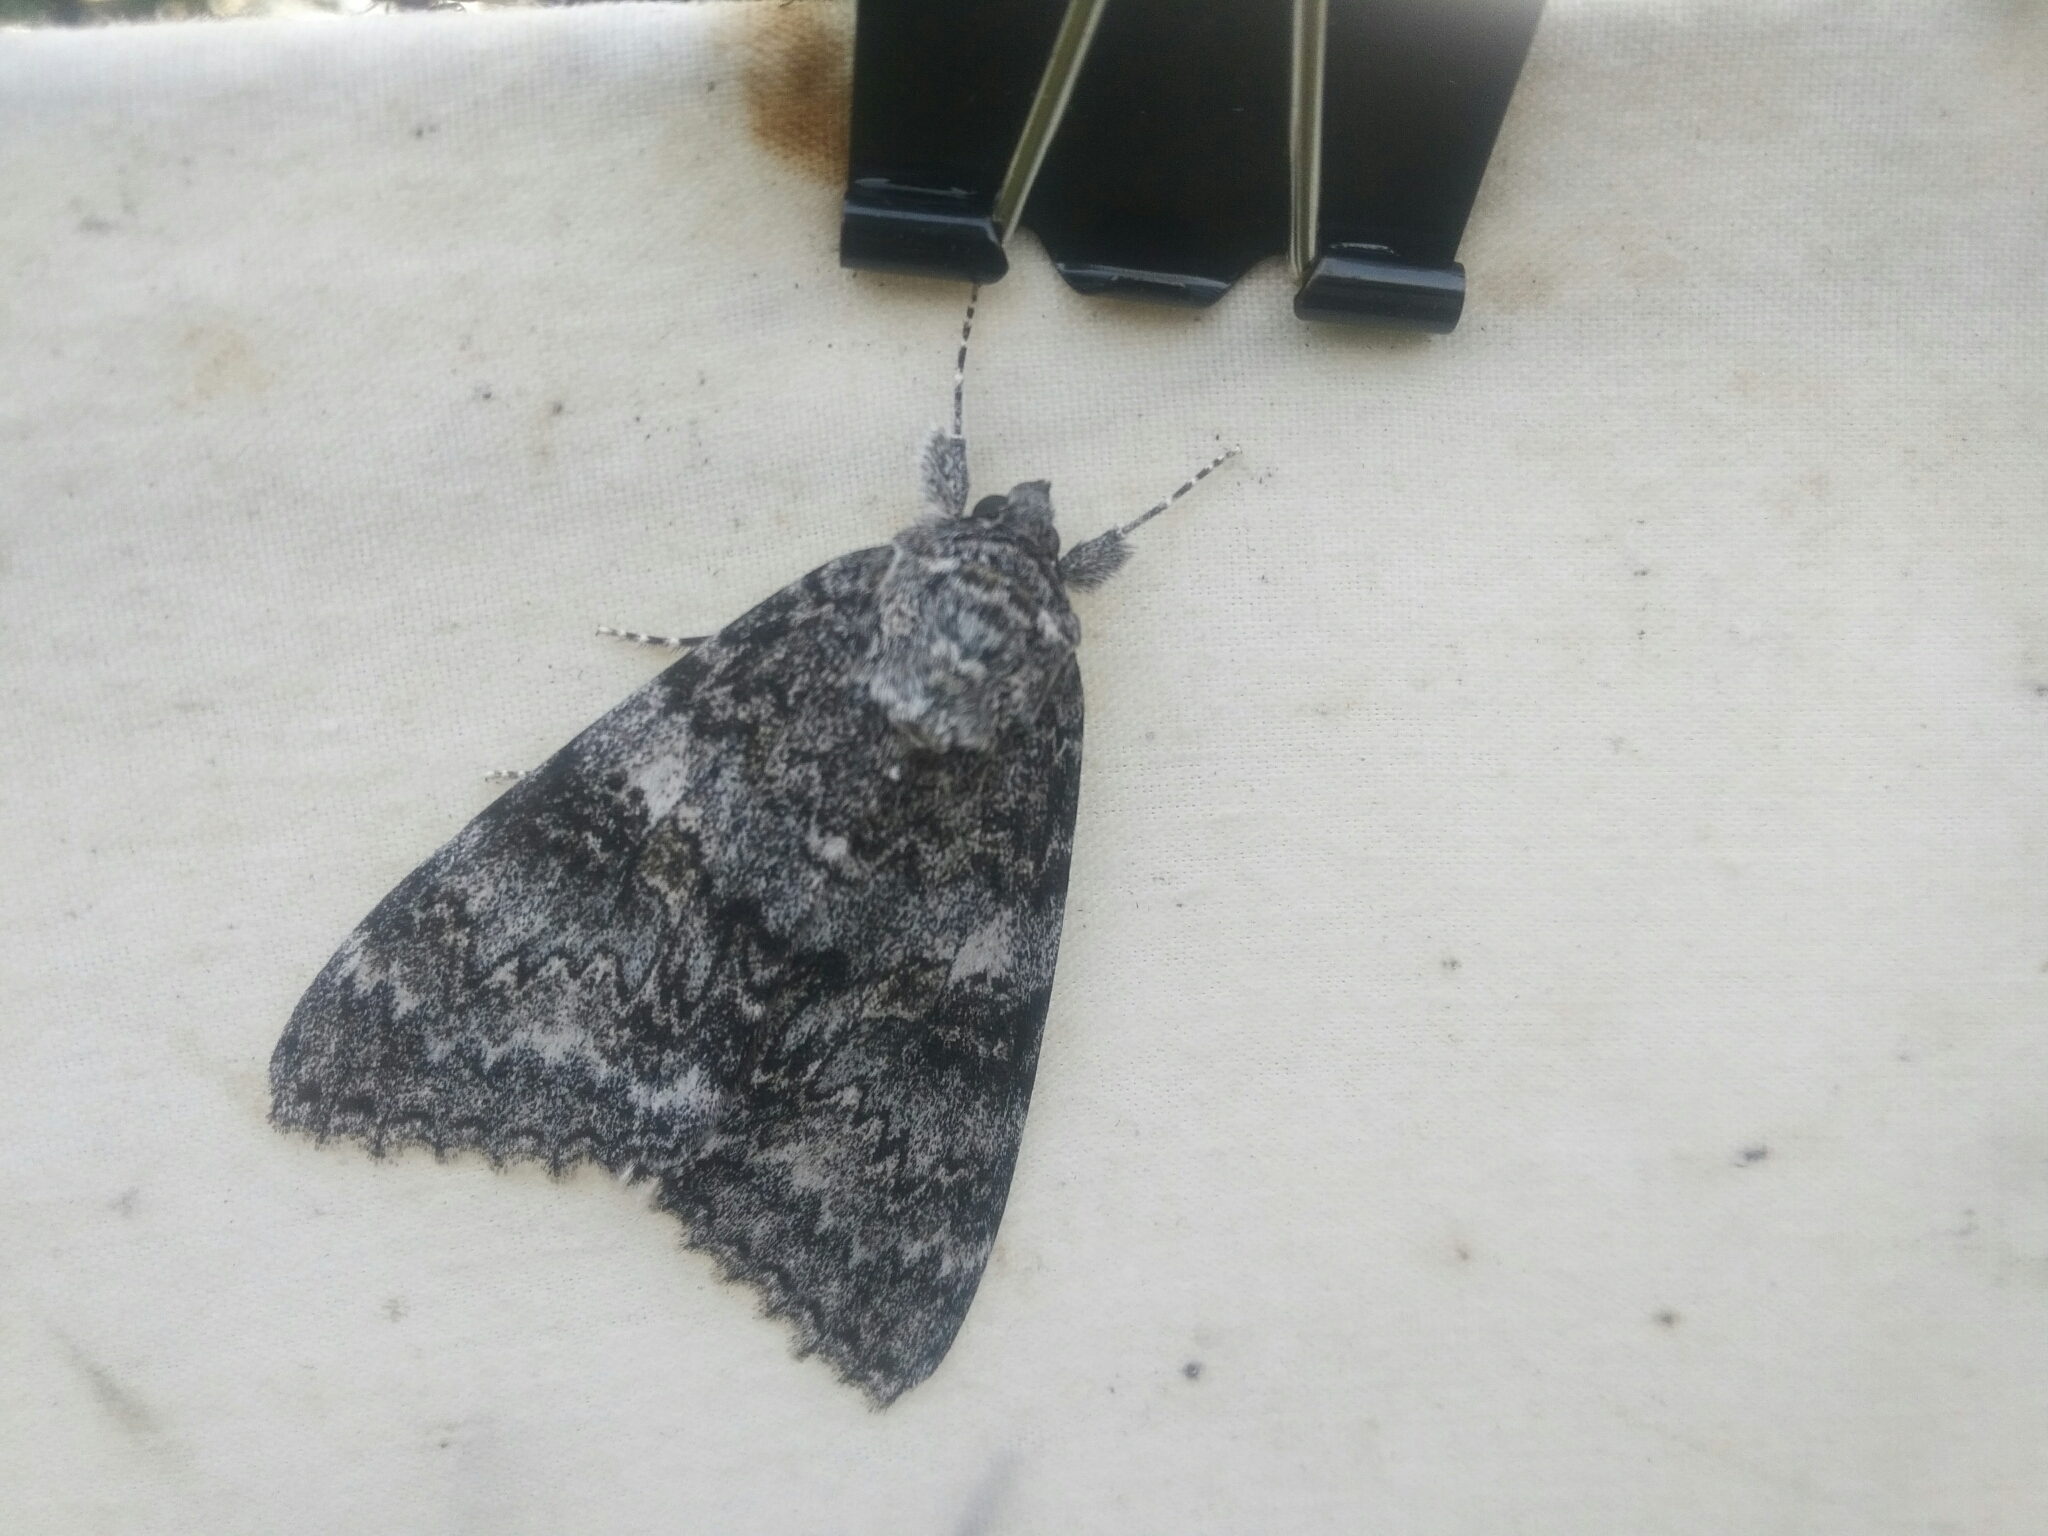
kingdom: Animalia
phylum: Arthropoda
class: Insecta
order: Lepidoptera
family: Erebidae
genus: Catocala
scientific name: Catocala unijuga
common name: Once-married underwing
